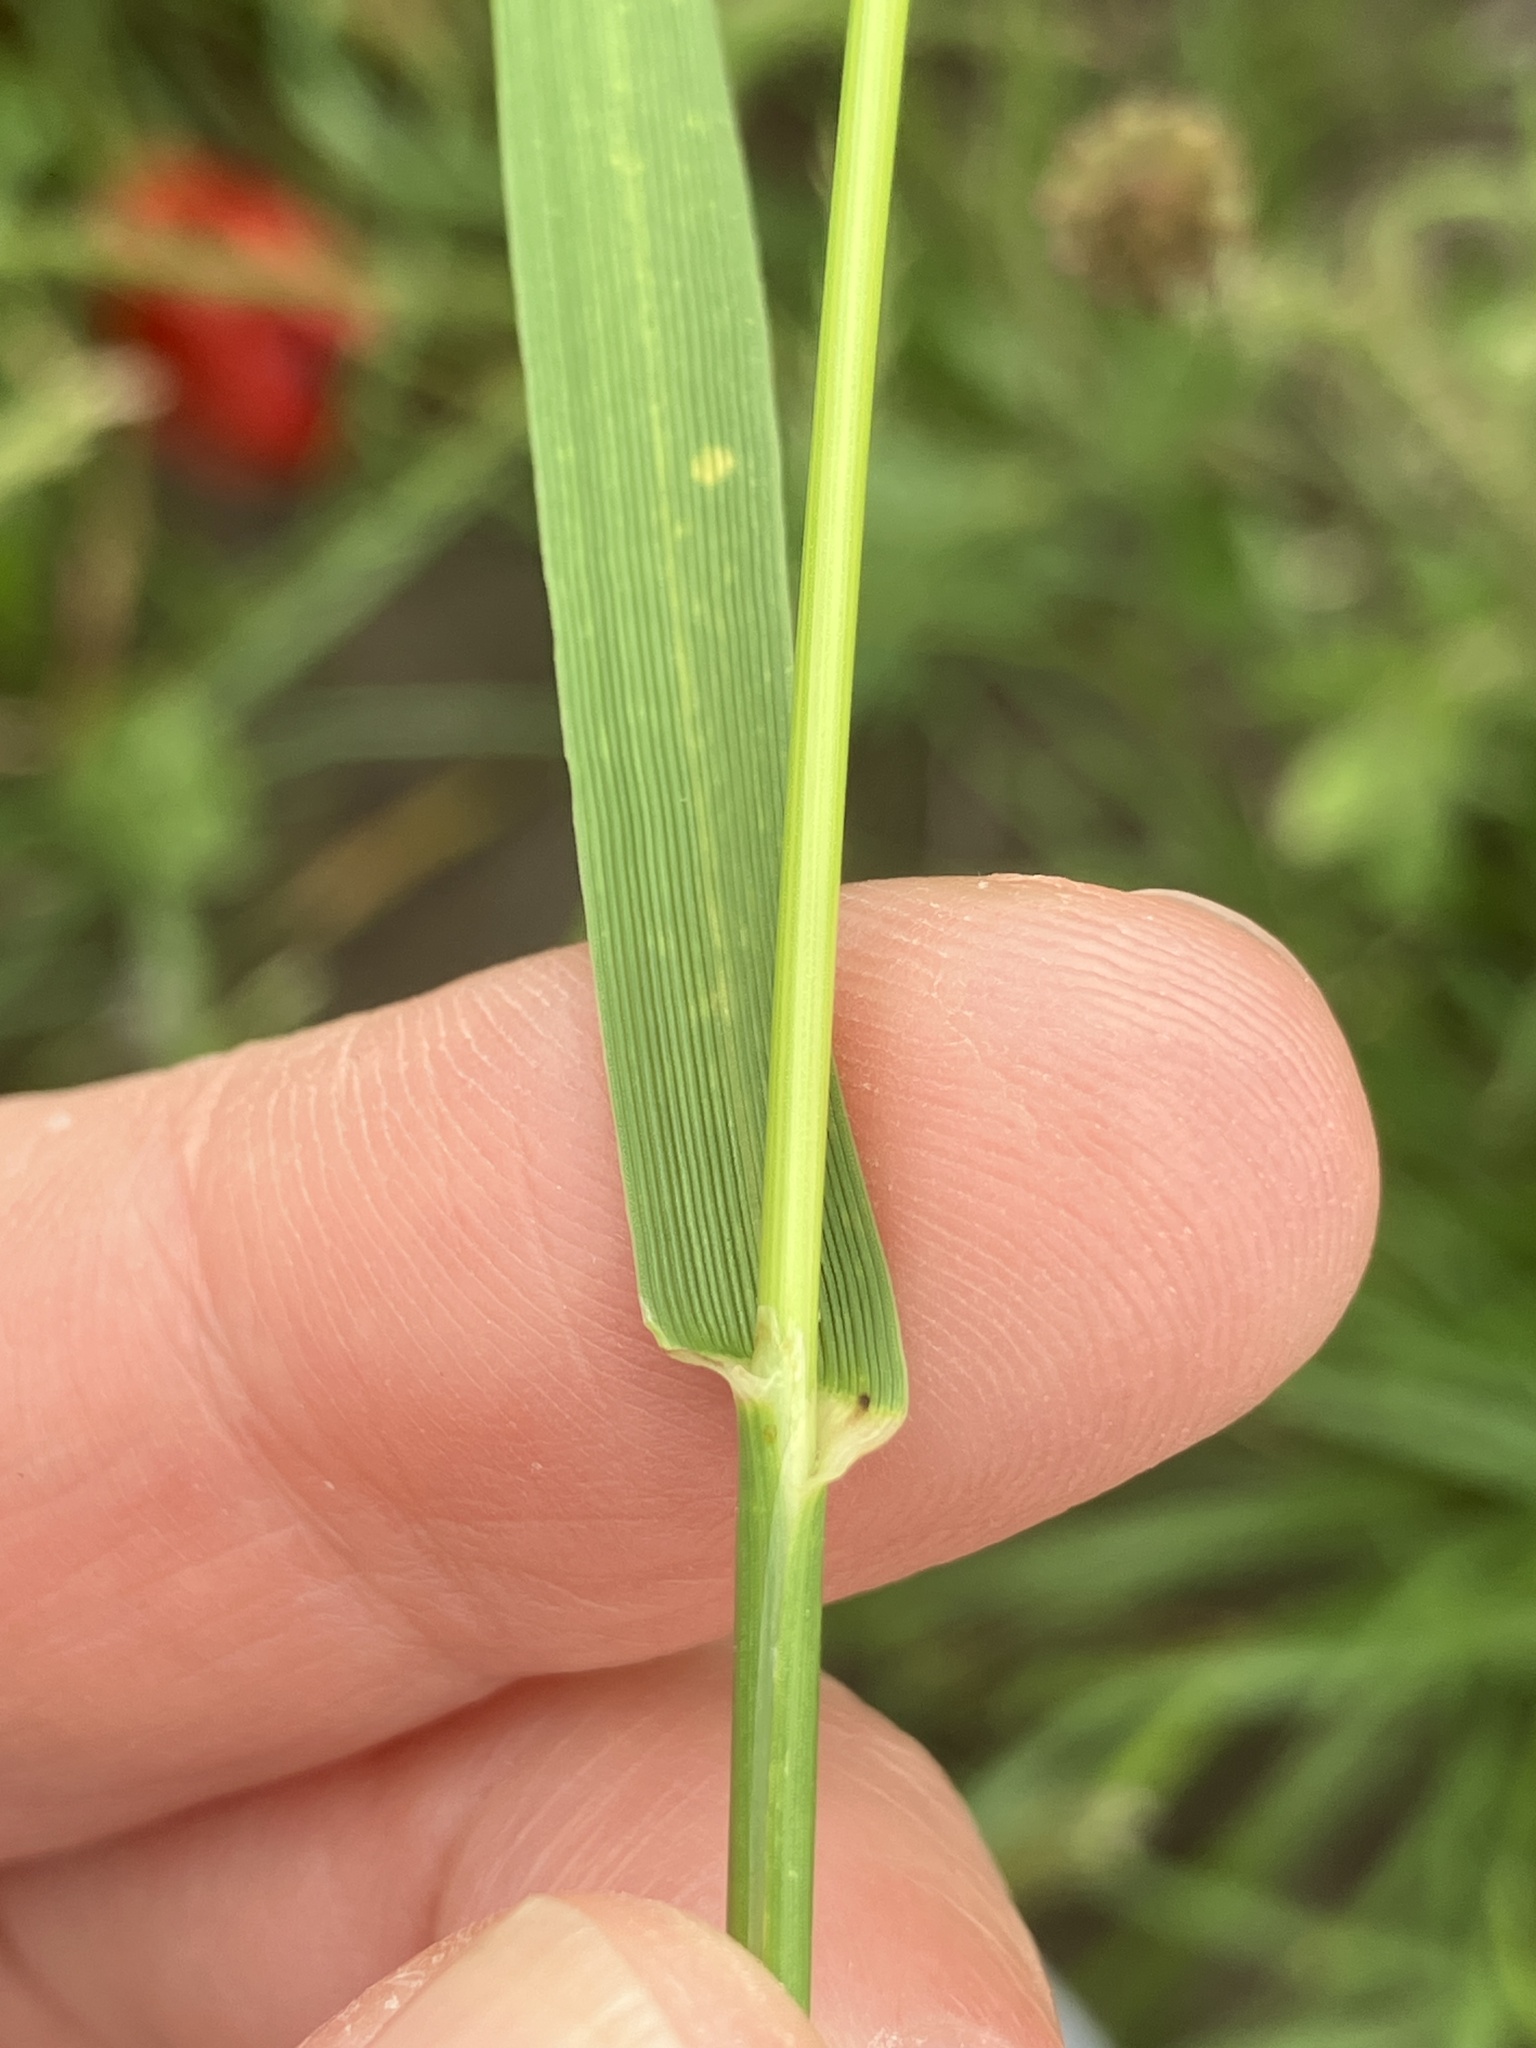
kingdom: Plantae
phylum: Tracheophyta
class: Liliopsida
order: Poales
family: Poaceae
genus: Lolium
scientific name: Lolium perenne
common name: Perennial ryegrass
